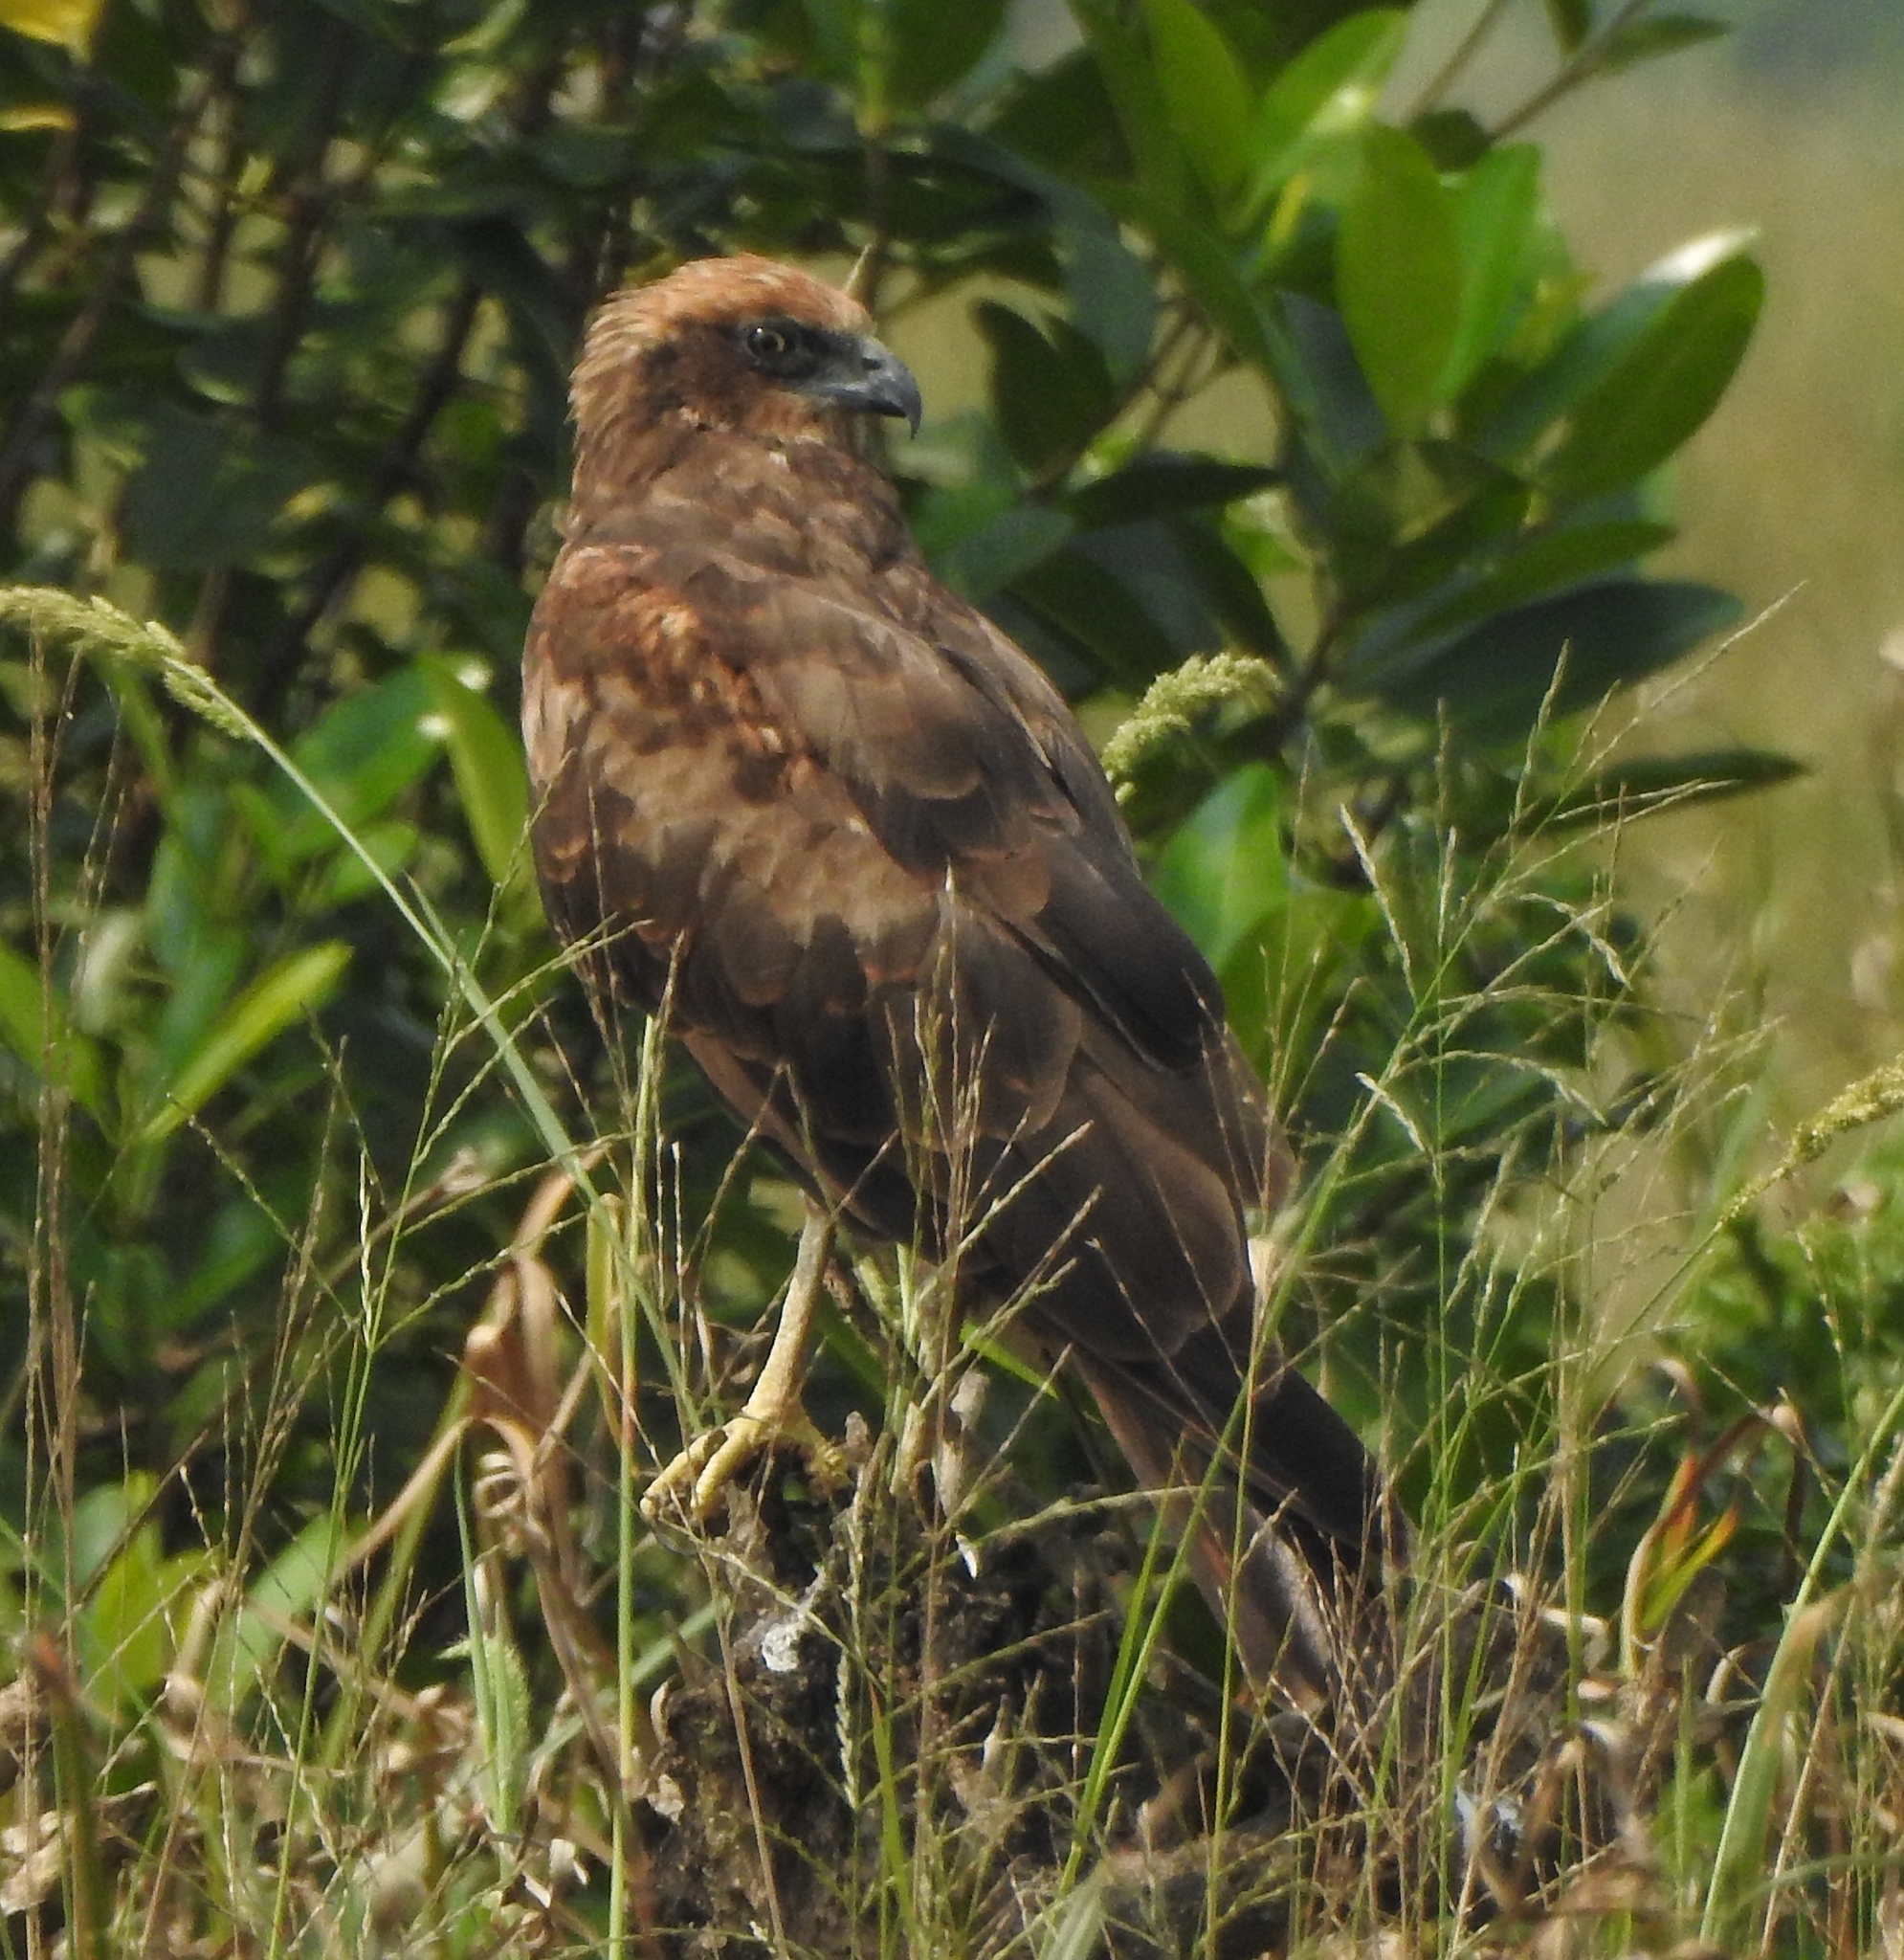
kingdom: Animalia
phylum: Chordata
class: Aves
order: Accipitriformes
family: Accipitridae
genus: Circus
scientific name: Circus aeruginosus
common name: Western marsh harrier
